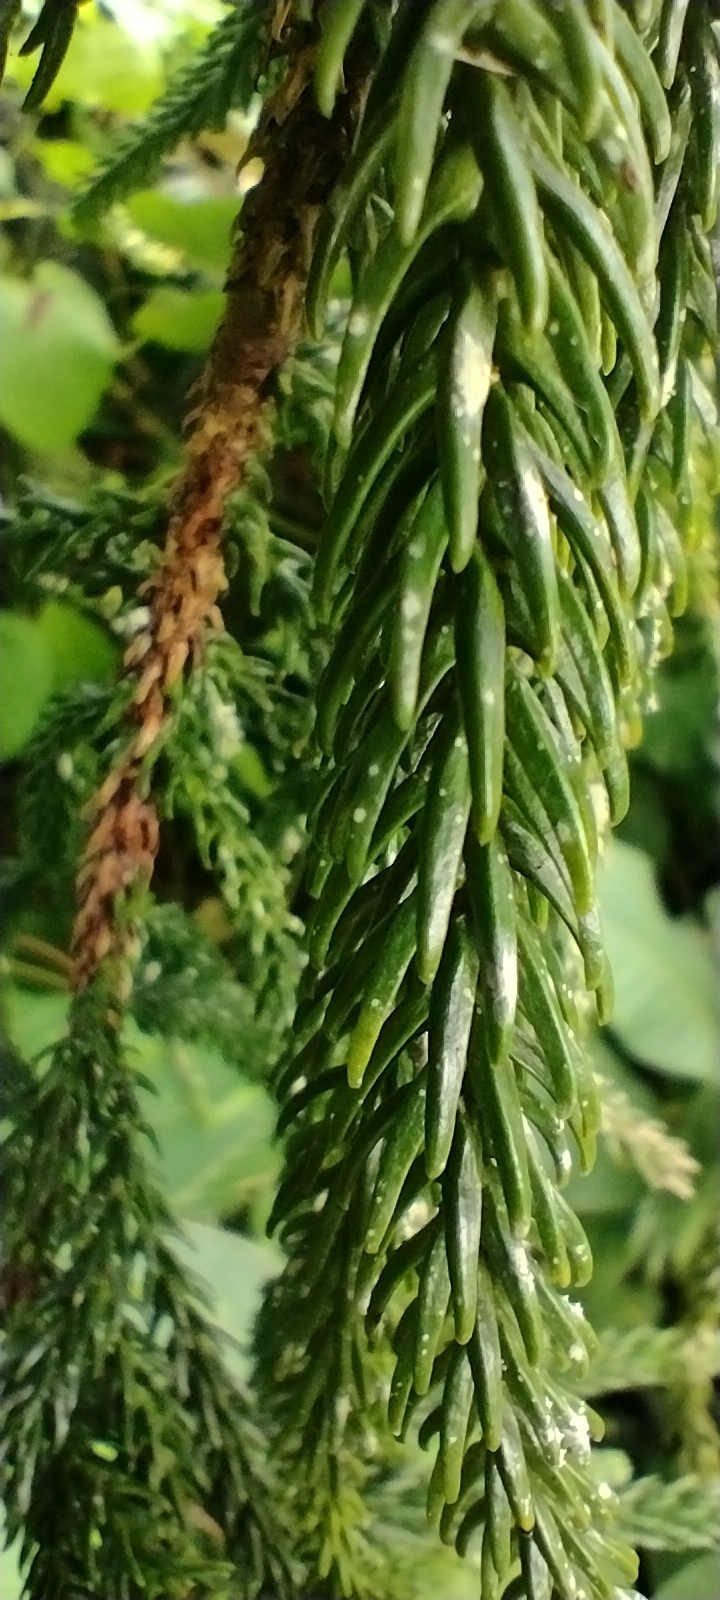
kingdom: Plantae
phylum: Tracheophyta
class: Pinopsida
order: Pinales
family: Araucariaceae
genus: Araucaria
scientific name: Araucaria columnaris
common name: Coral reef araucaria
